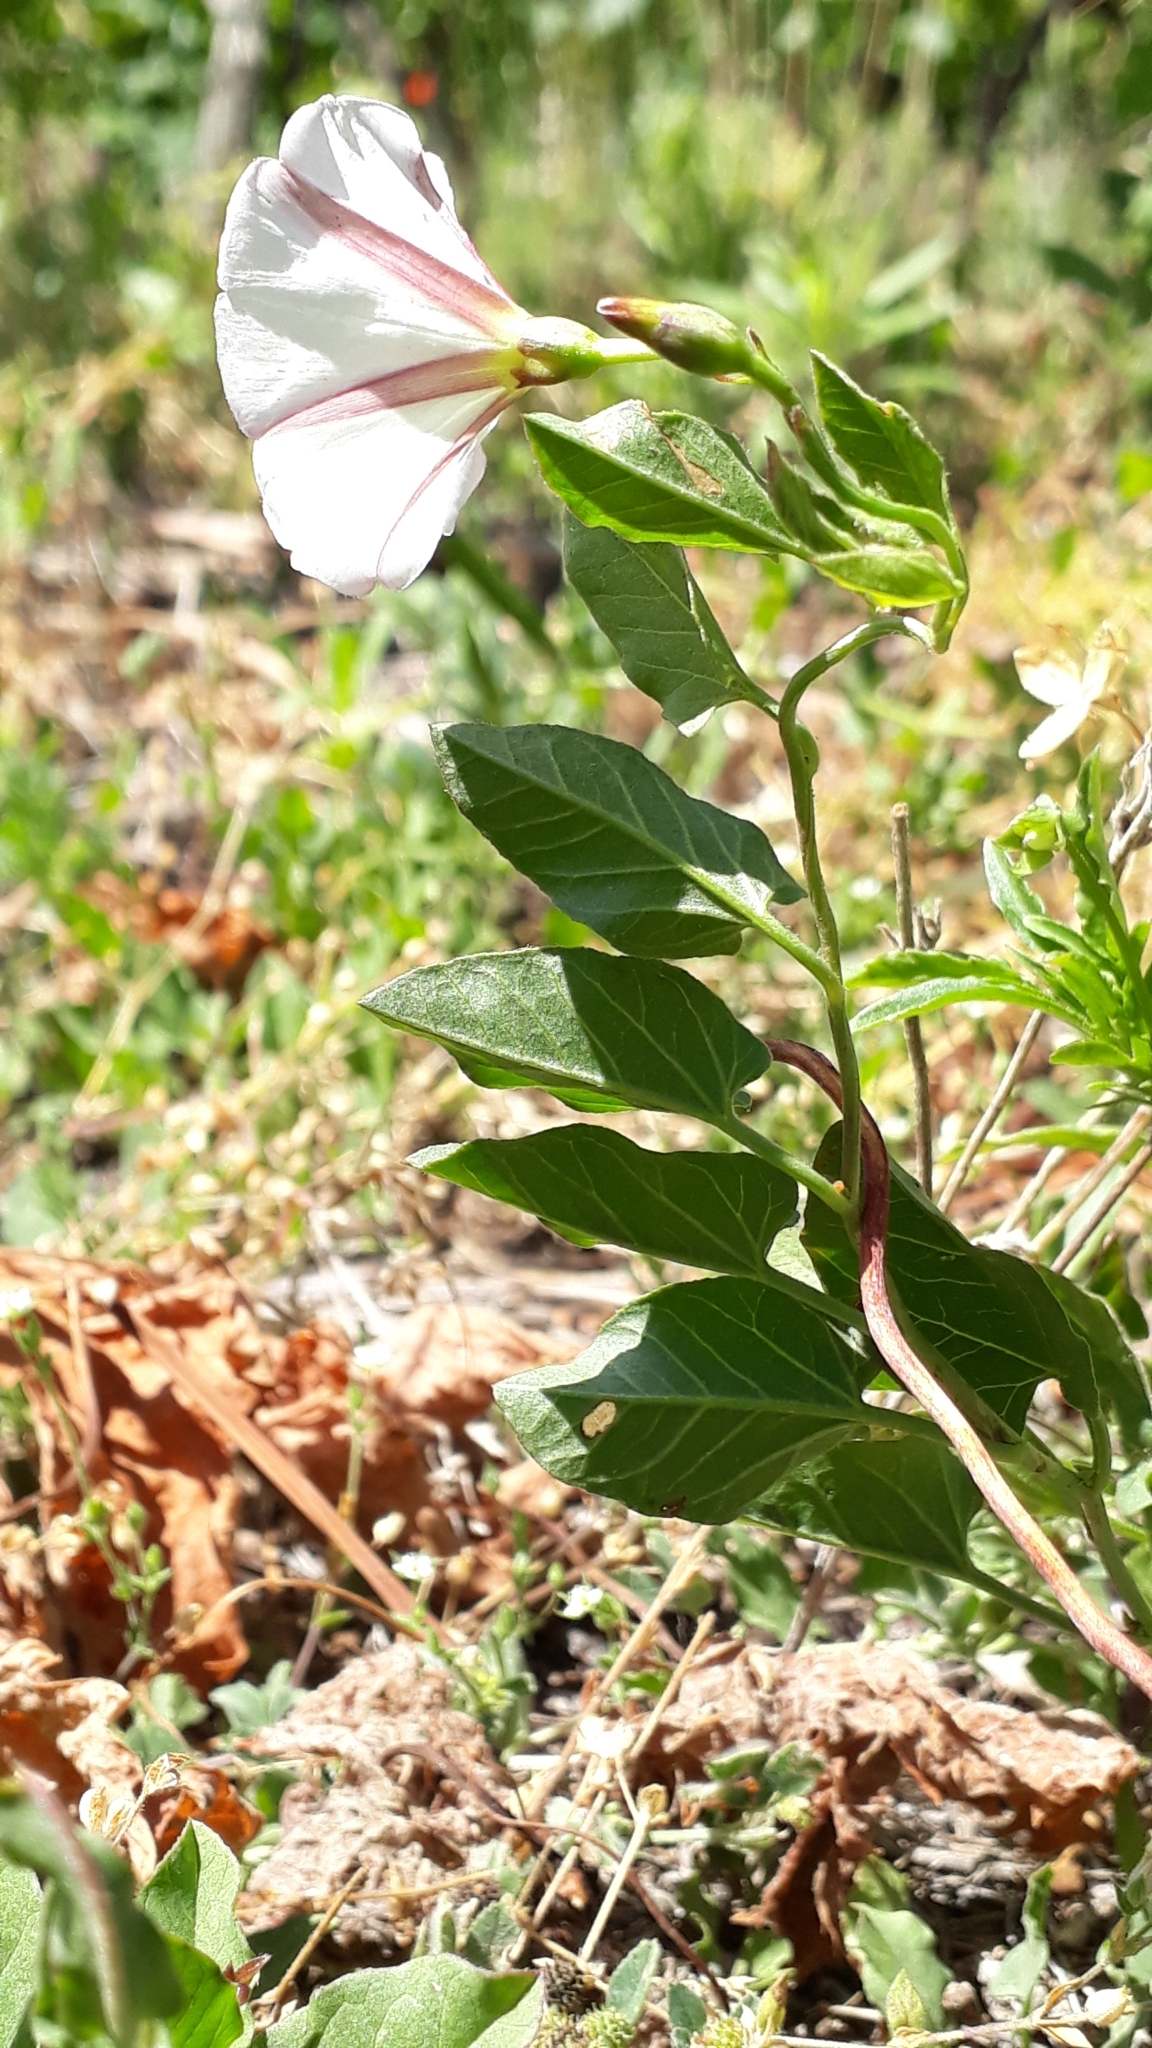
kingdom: Plantae
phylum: Tracheophyta
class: Magnoliopsida
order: Solanales
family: Convolvulaceae
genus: Convolvulus
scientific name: Convolvulus arvensis
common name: Field bindweed
